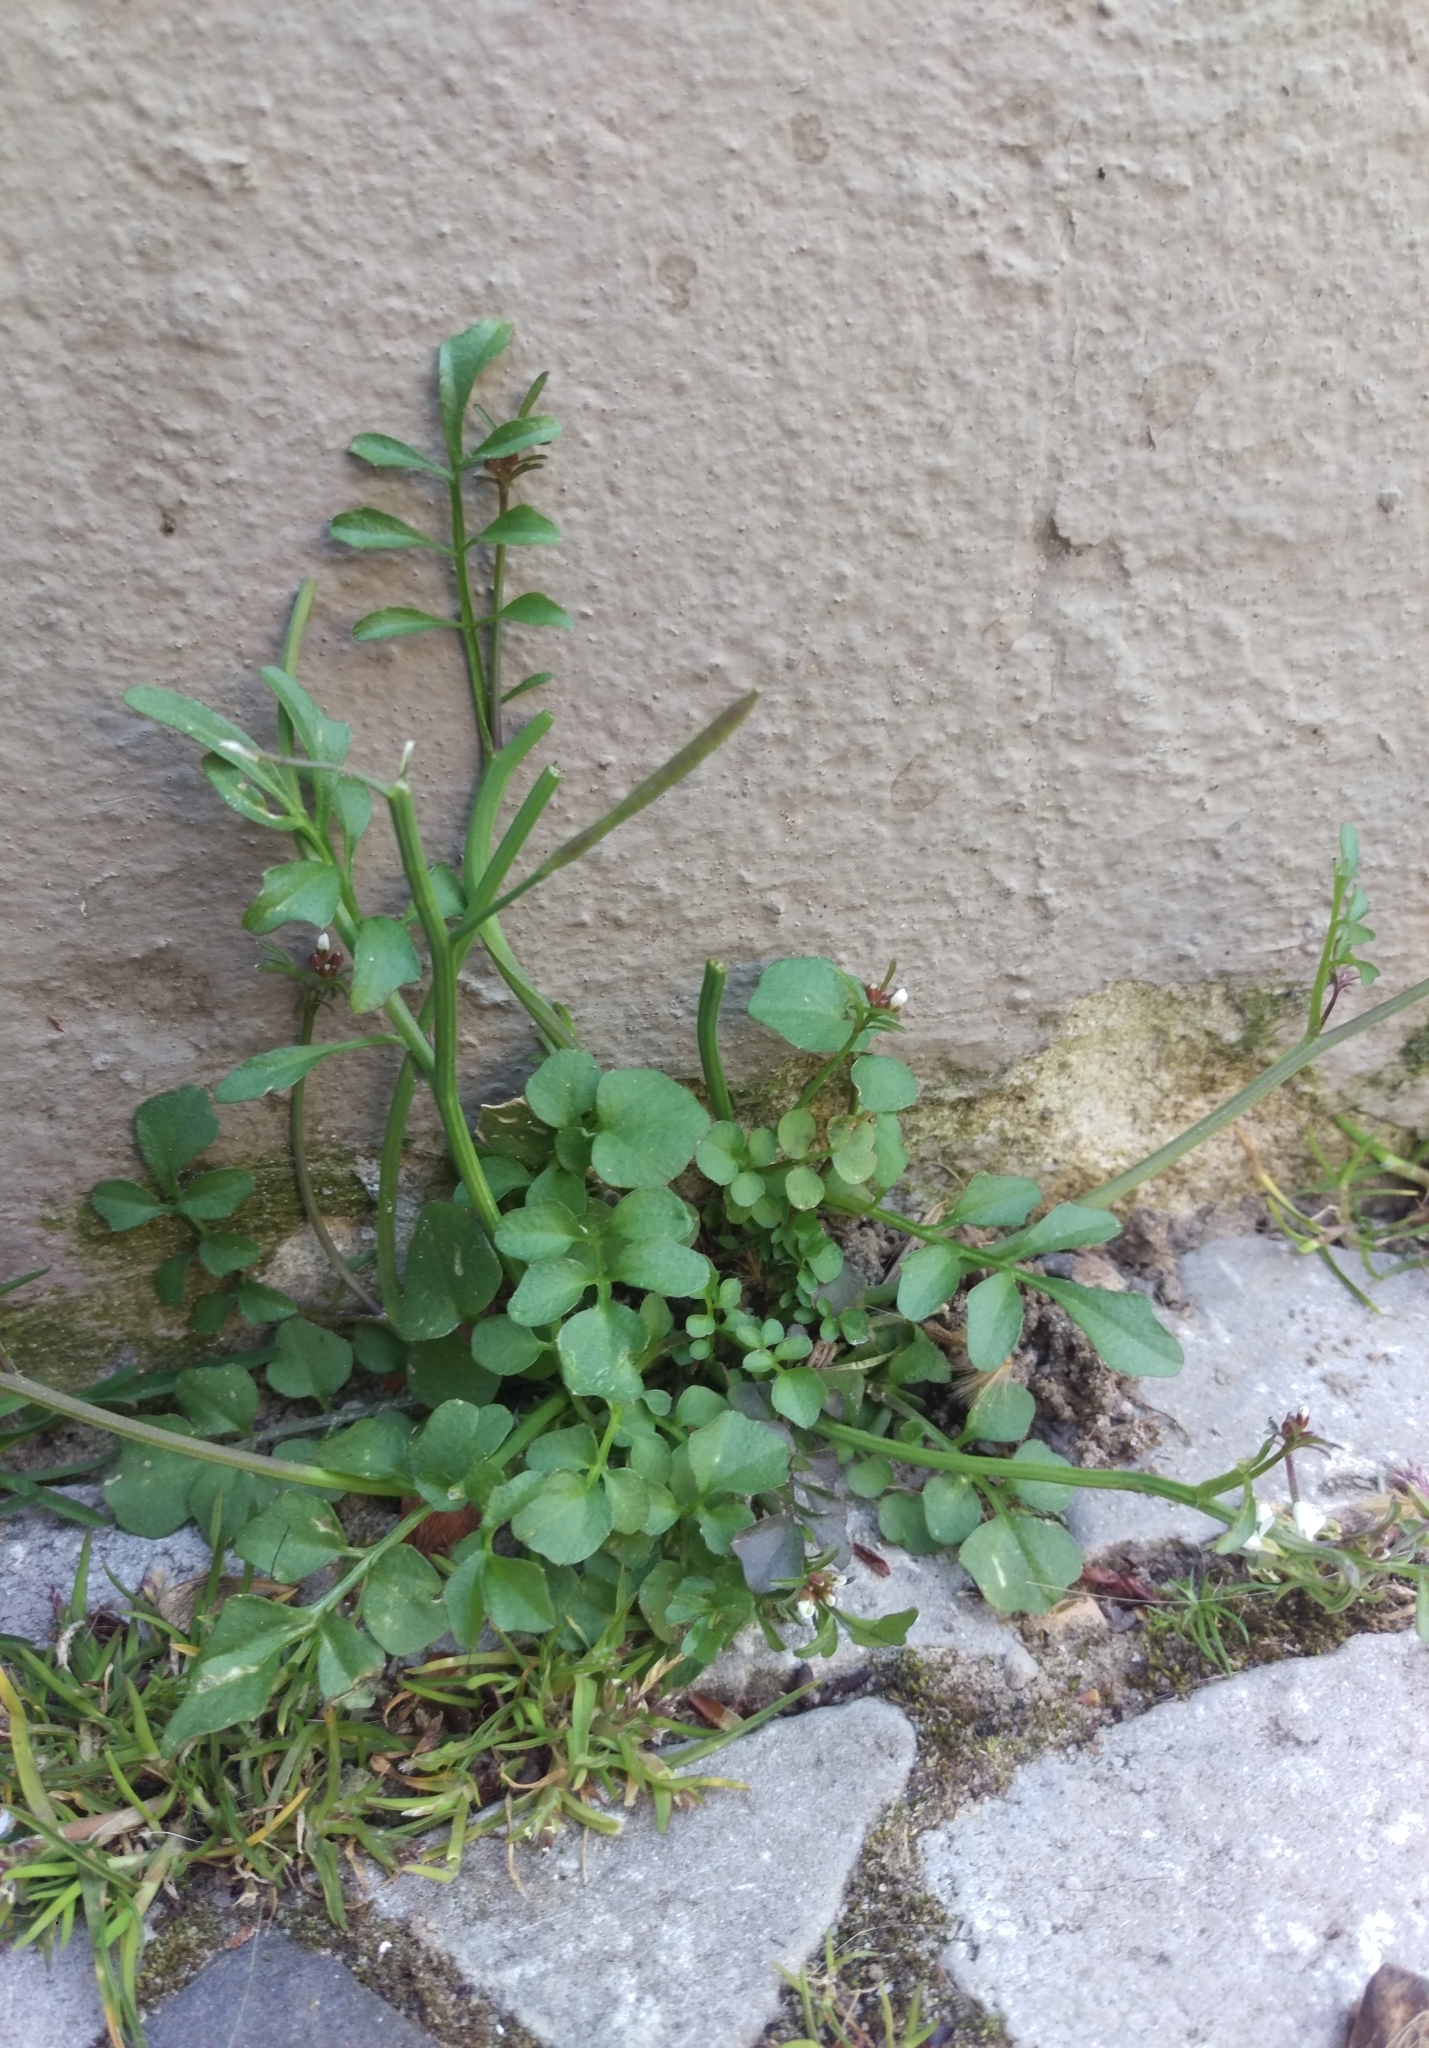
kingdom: Plantae
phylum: Tracheophyta
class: Magnoliopsida
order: Brassicales
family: Brassicaceae
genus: Cardamine
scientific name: Cardamine hirsuta
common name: Hairy bittercress
